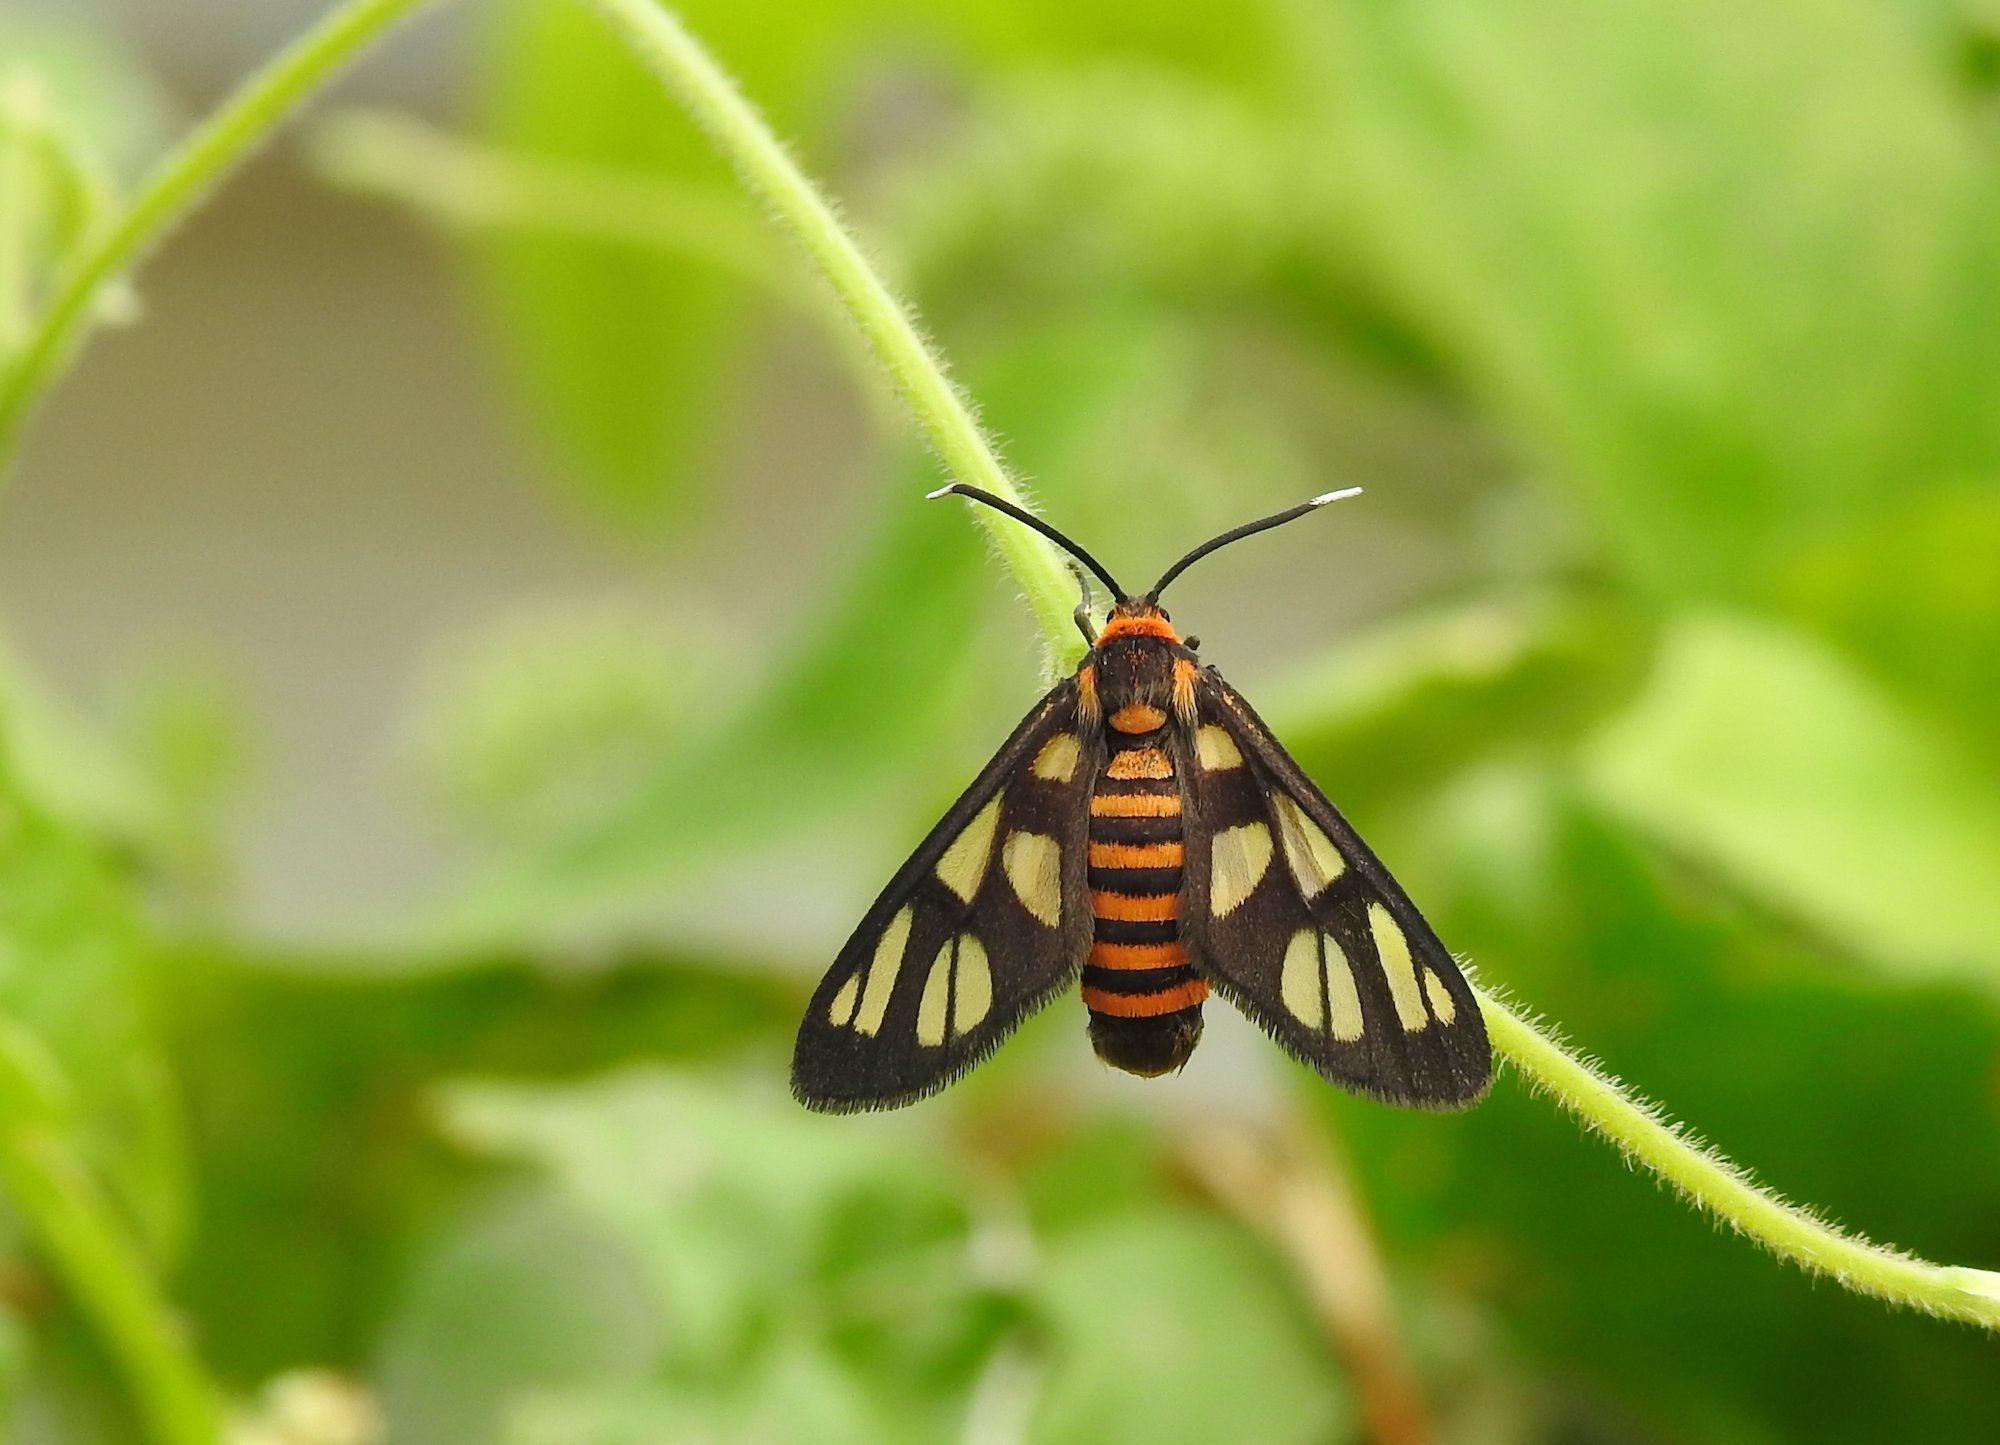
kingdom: Animalia
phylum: Arthropoda
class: Insecta
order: Lepidoptera
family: Erebidae
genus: Amata
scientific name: Amata huebneri
